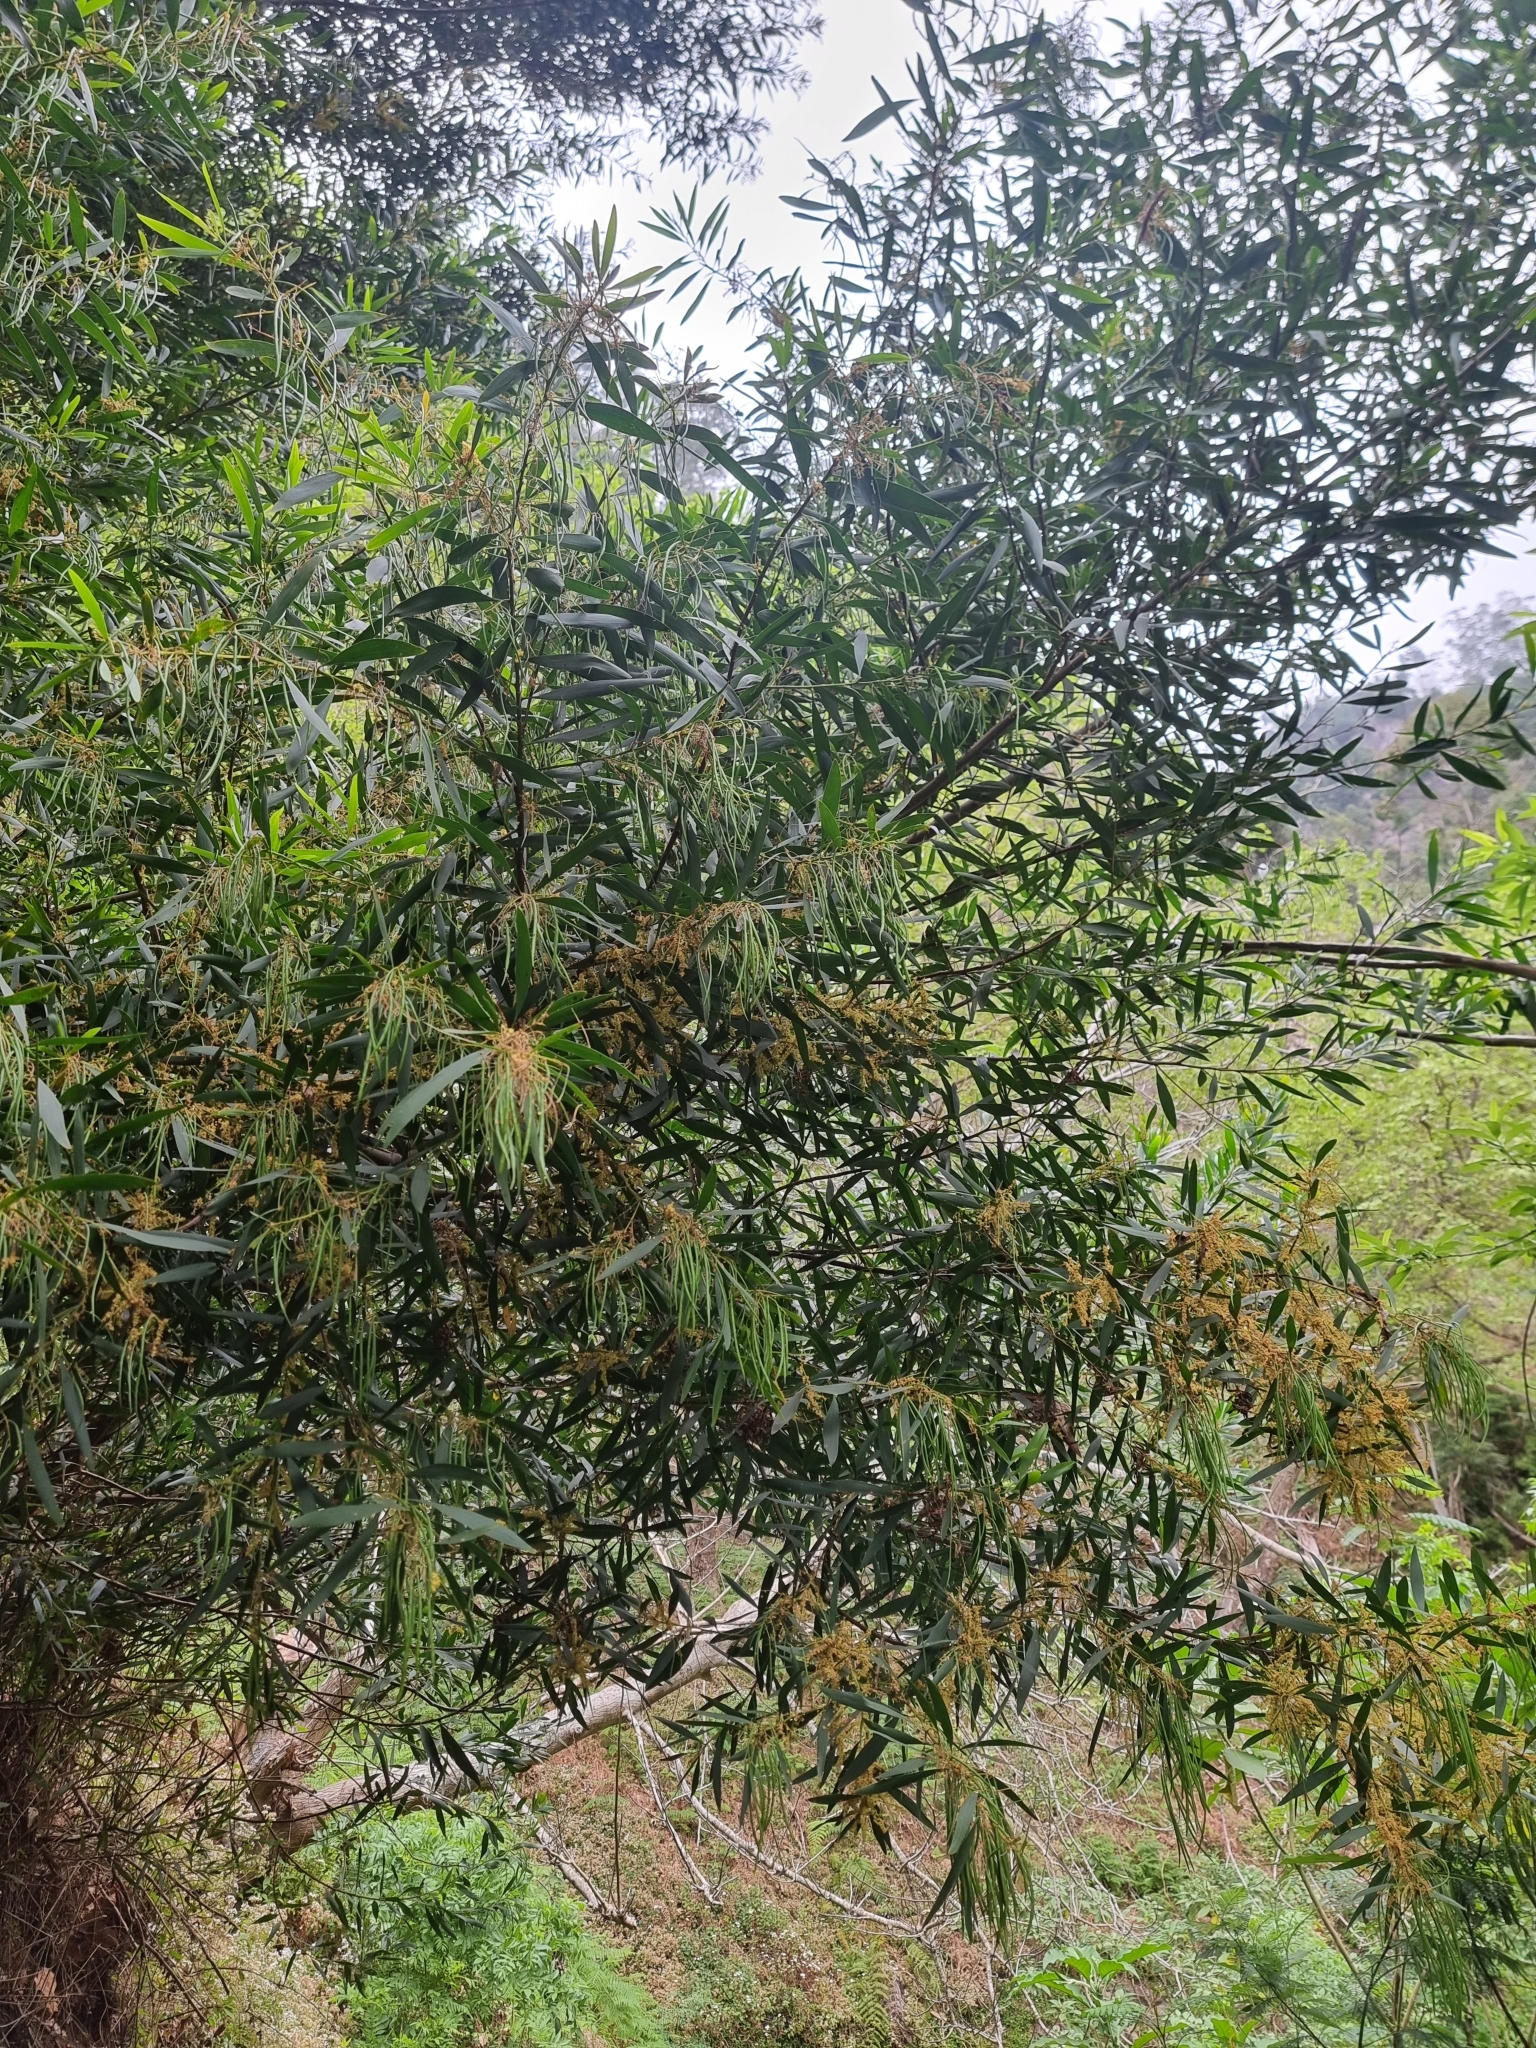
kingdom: Plantae
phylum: Tracheophyta
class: Magnoliopsida
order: Fabales
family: Fabaceae
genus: Acacia
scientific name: Acacia longifolia
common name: Sydney golden wattle
